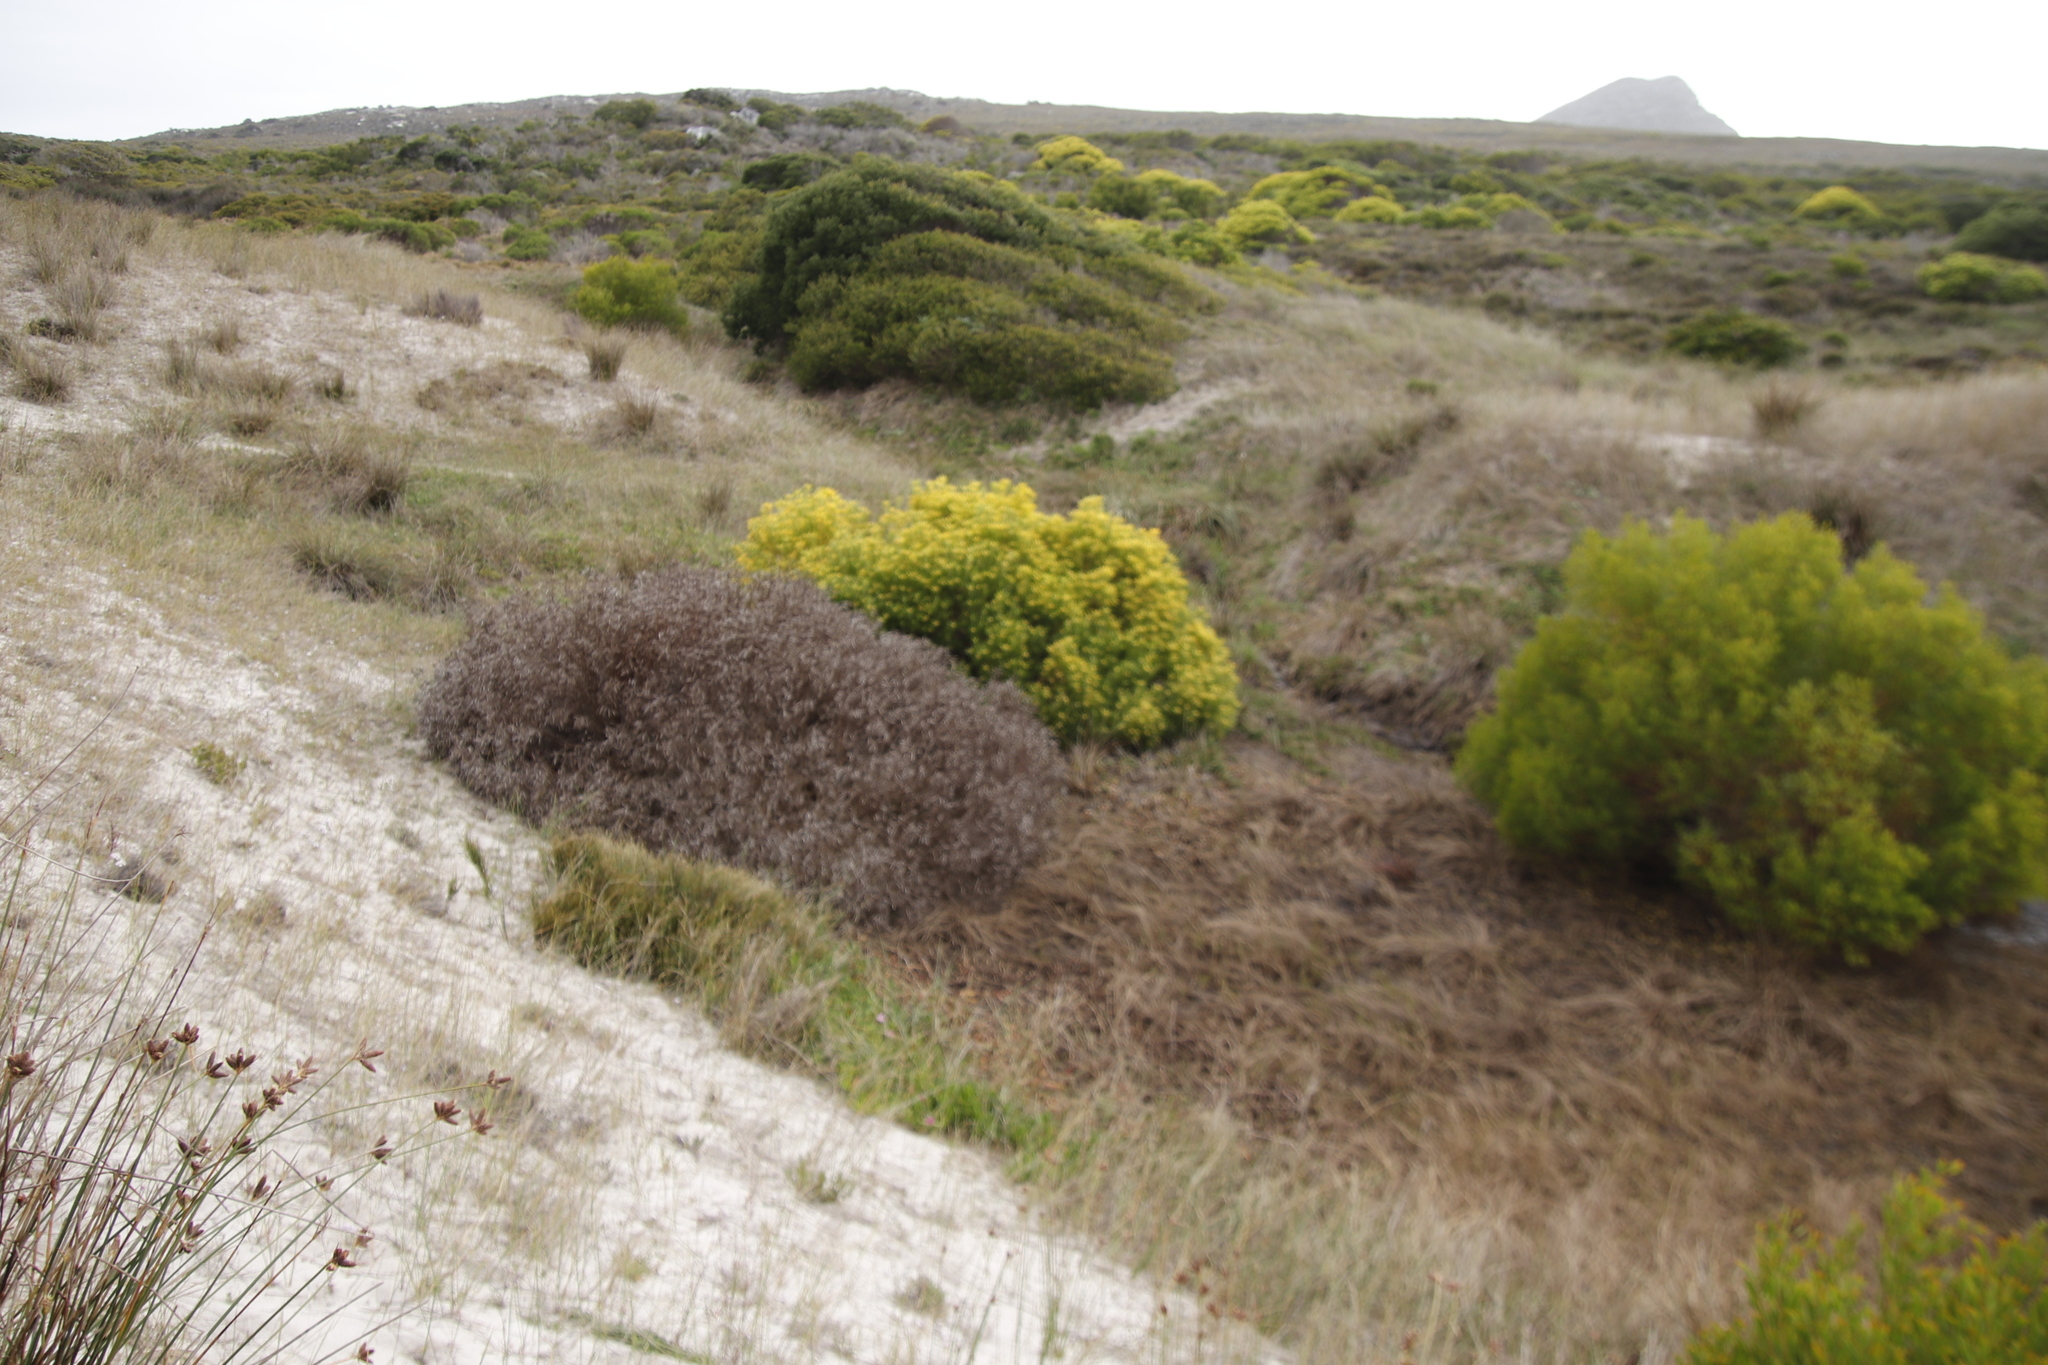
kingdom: Plantae
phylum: Tracheophyta
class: Magnoliopsida
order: Proteales
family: Proteaceae
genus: Leucadendron
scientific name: Leucadendron coniferum
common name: Dune conebush
